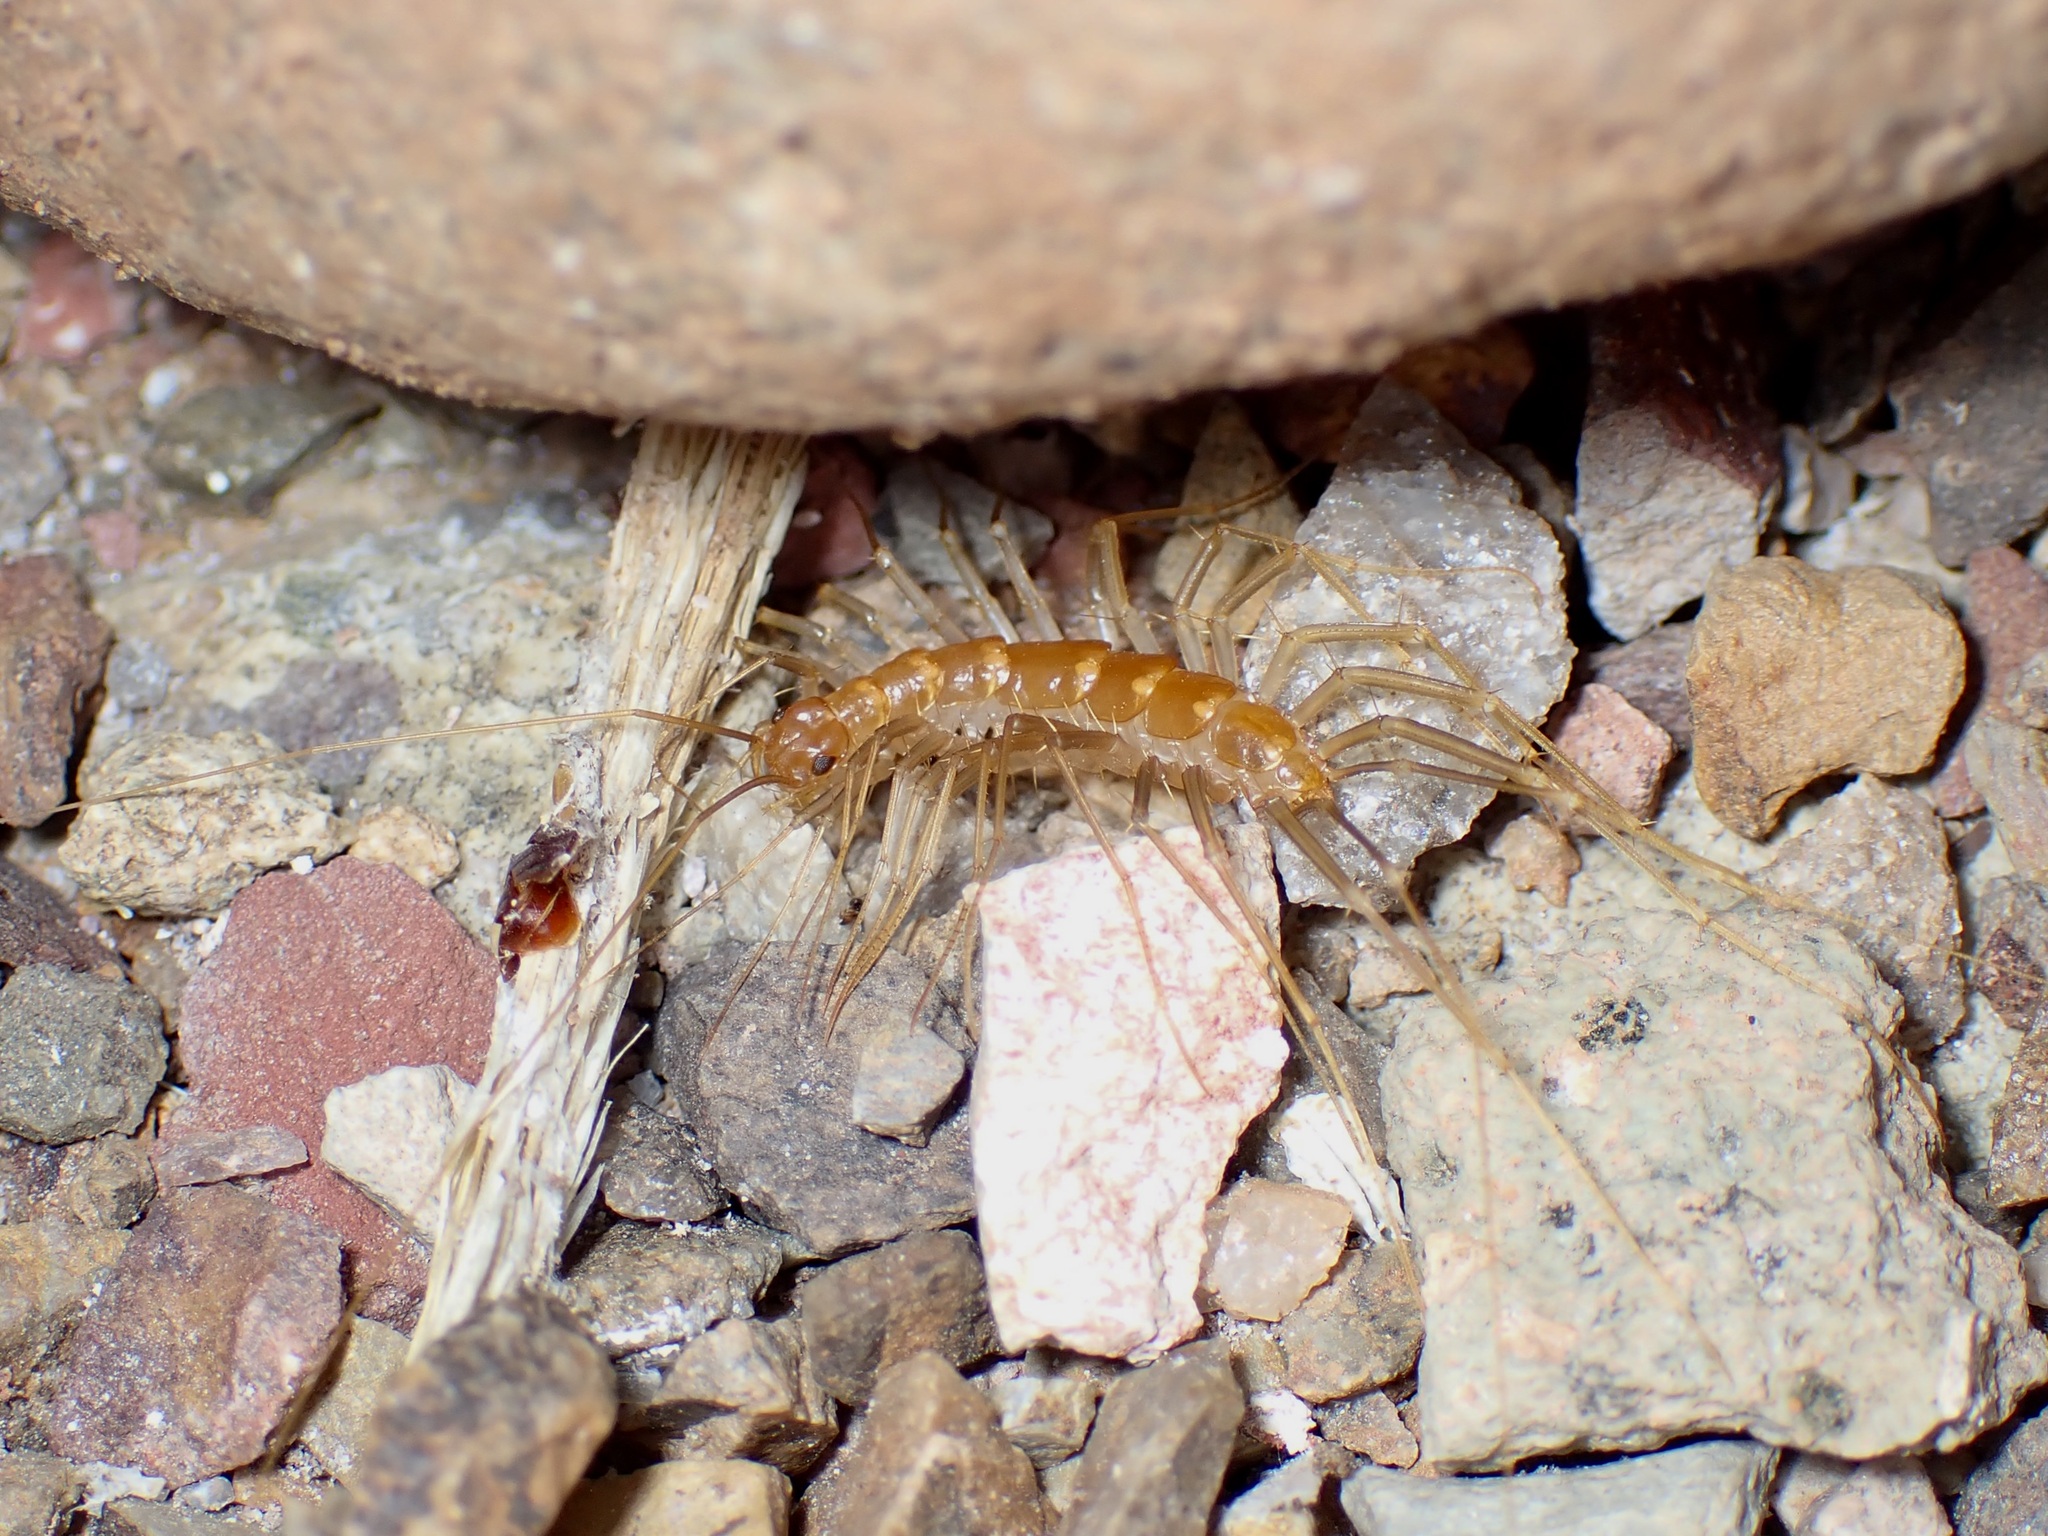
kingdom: Animalia
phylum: Arthropoda
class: Chilopoda
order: Scutigeromorpha
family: Scutigeridae
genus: Scutigera
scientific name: Scutigera linceci
